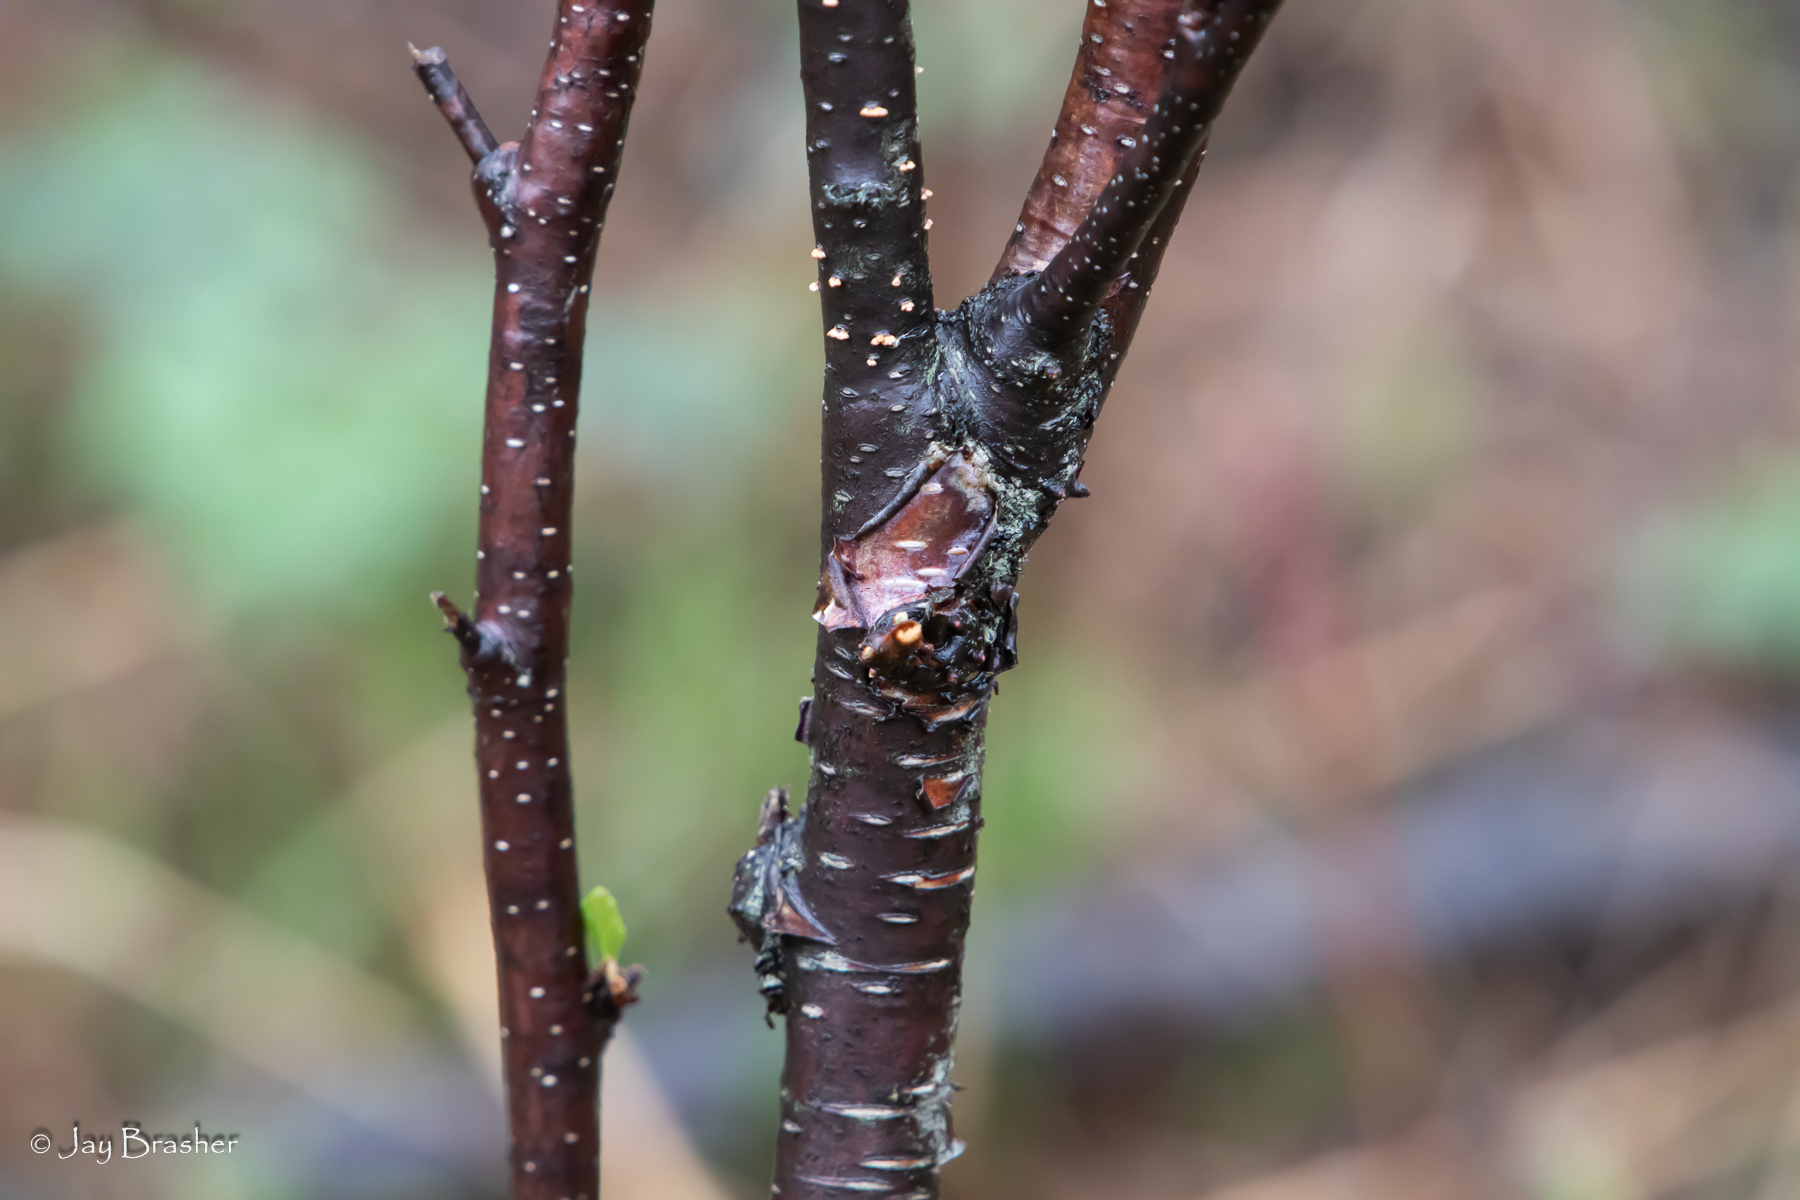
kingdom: Plantae
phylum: Tracheophyta
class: Magnoliopsida
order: Fagales
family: Betulaceae
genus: Alnus
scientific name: Alnus incana
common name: Grey alder
